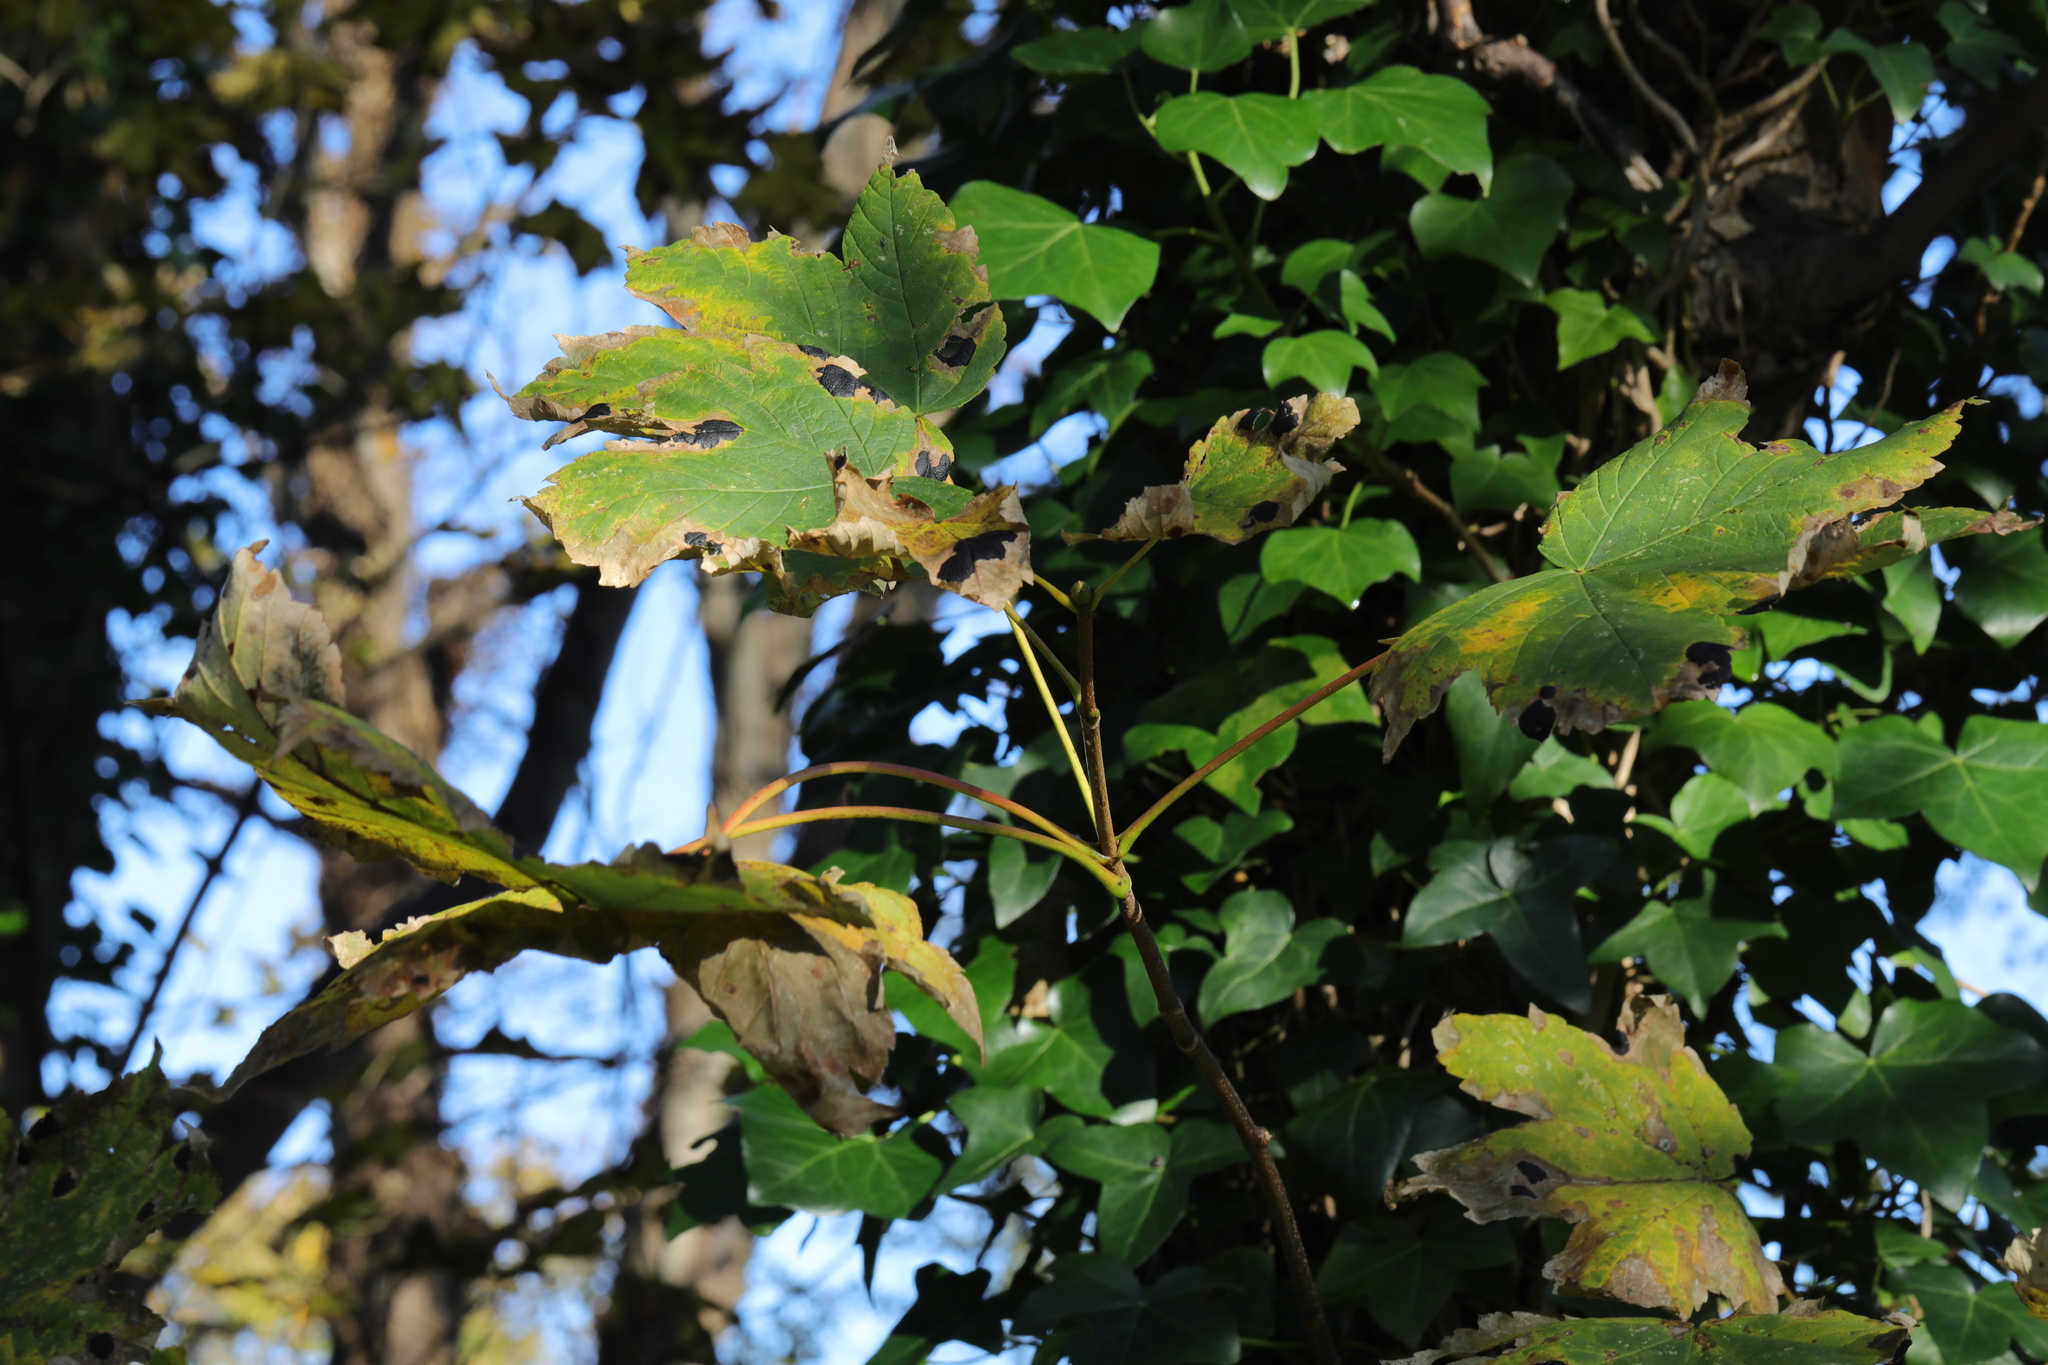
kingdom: Plantae
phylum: Tracheophyta
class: Magnoliopsida
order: Sapindales
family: Sapindaceae
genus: Acer
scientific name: Acer pseudoplatanus
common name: Sycamore
